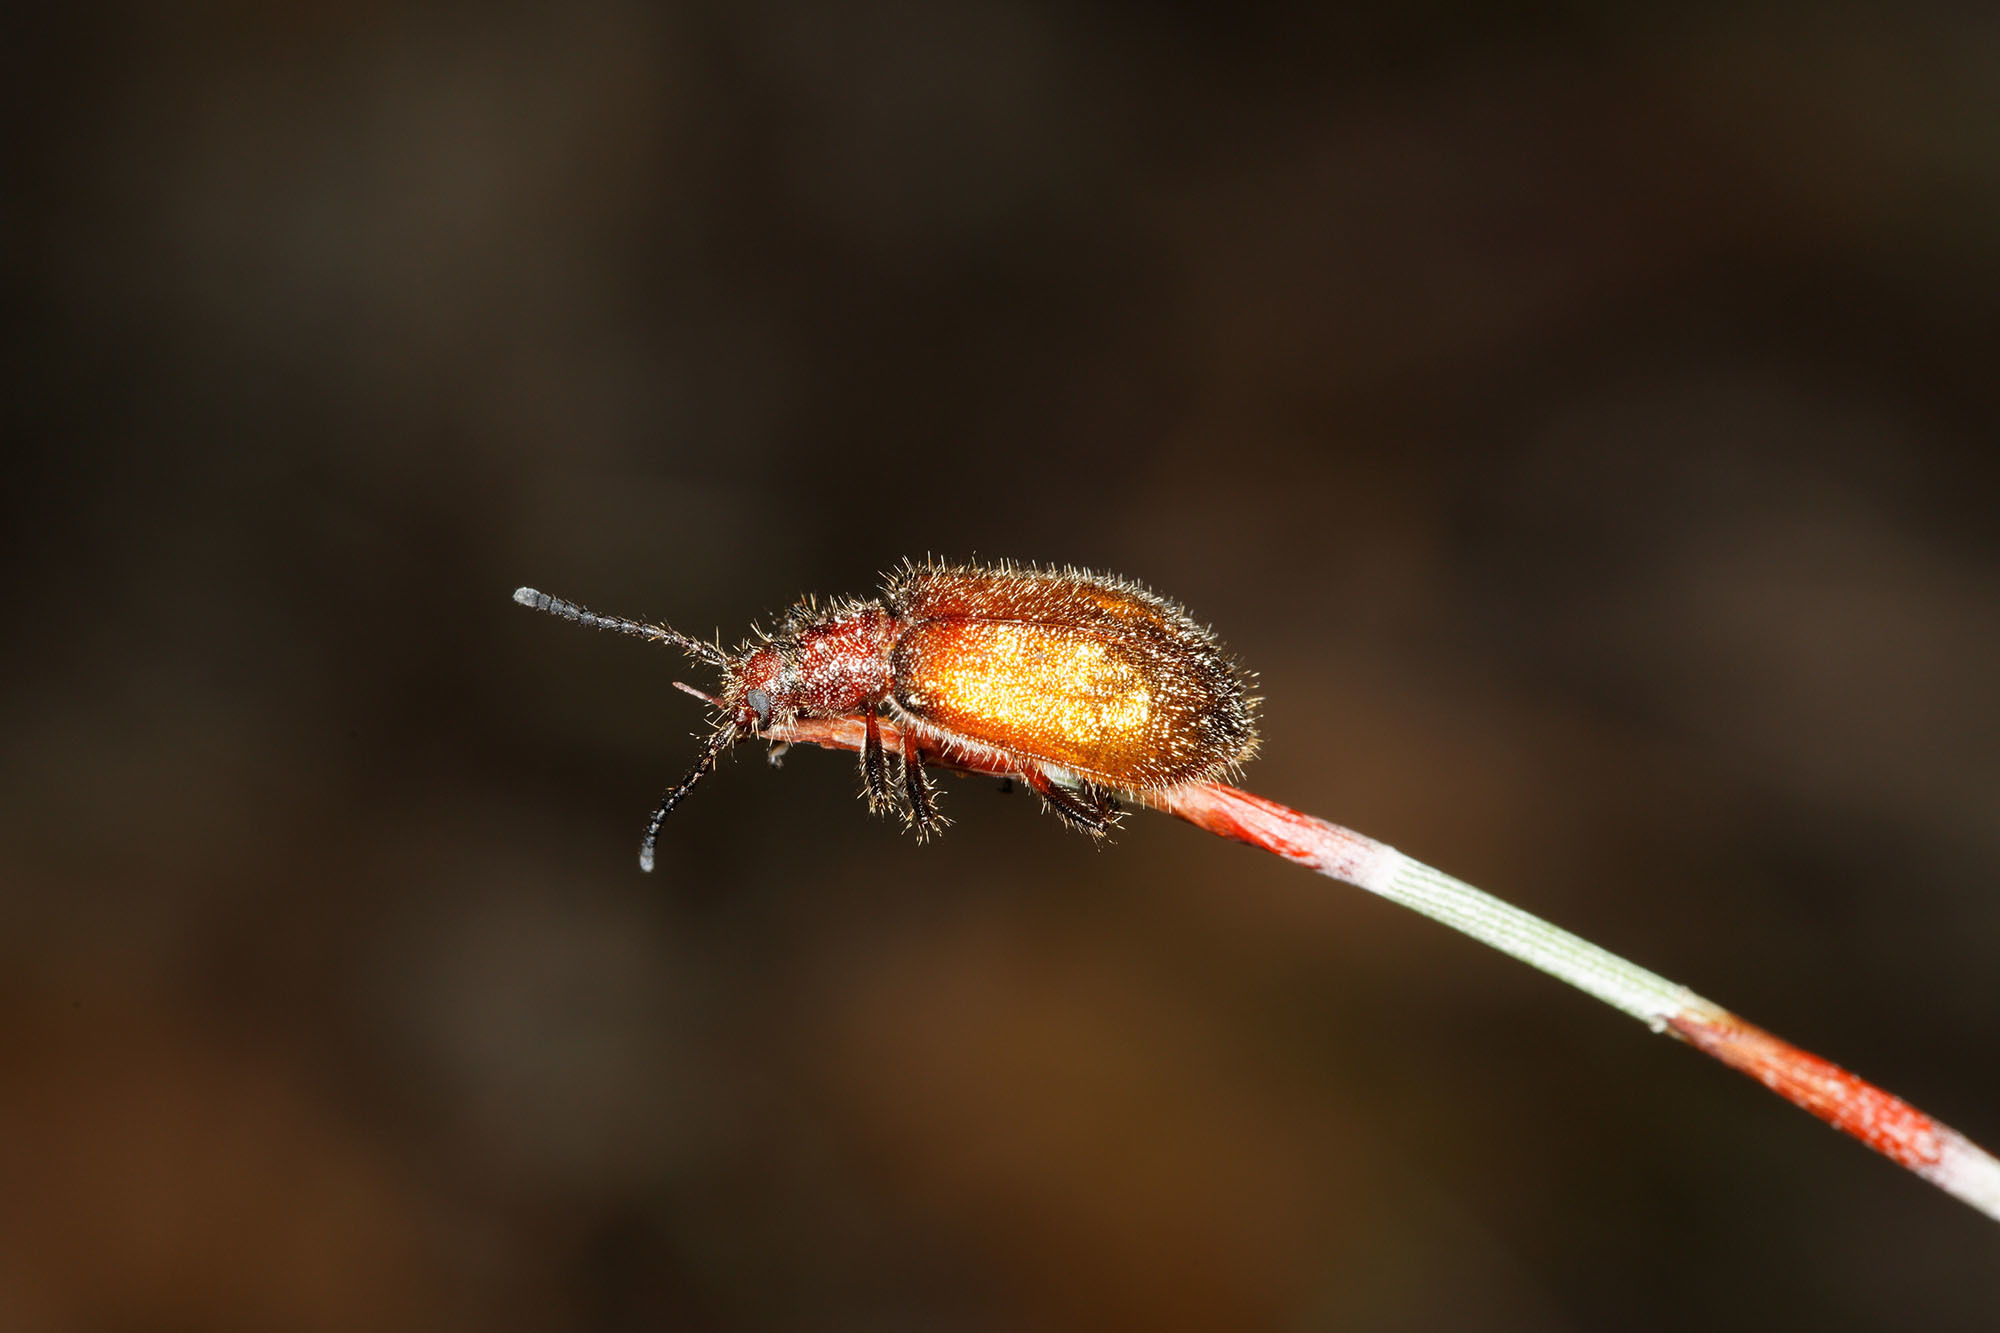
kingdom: Animalia
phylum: Arthropoda
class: Insecta
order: Coleoptera
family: Tenebrionidae
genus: Metriolagria
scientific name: Metriolagria affinis
